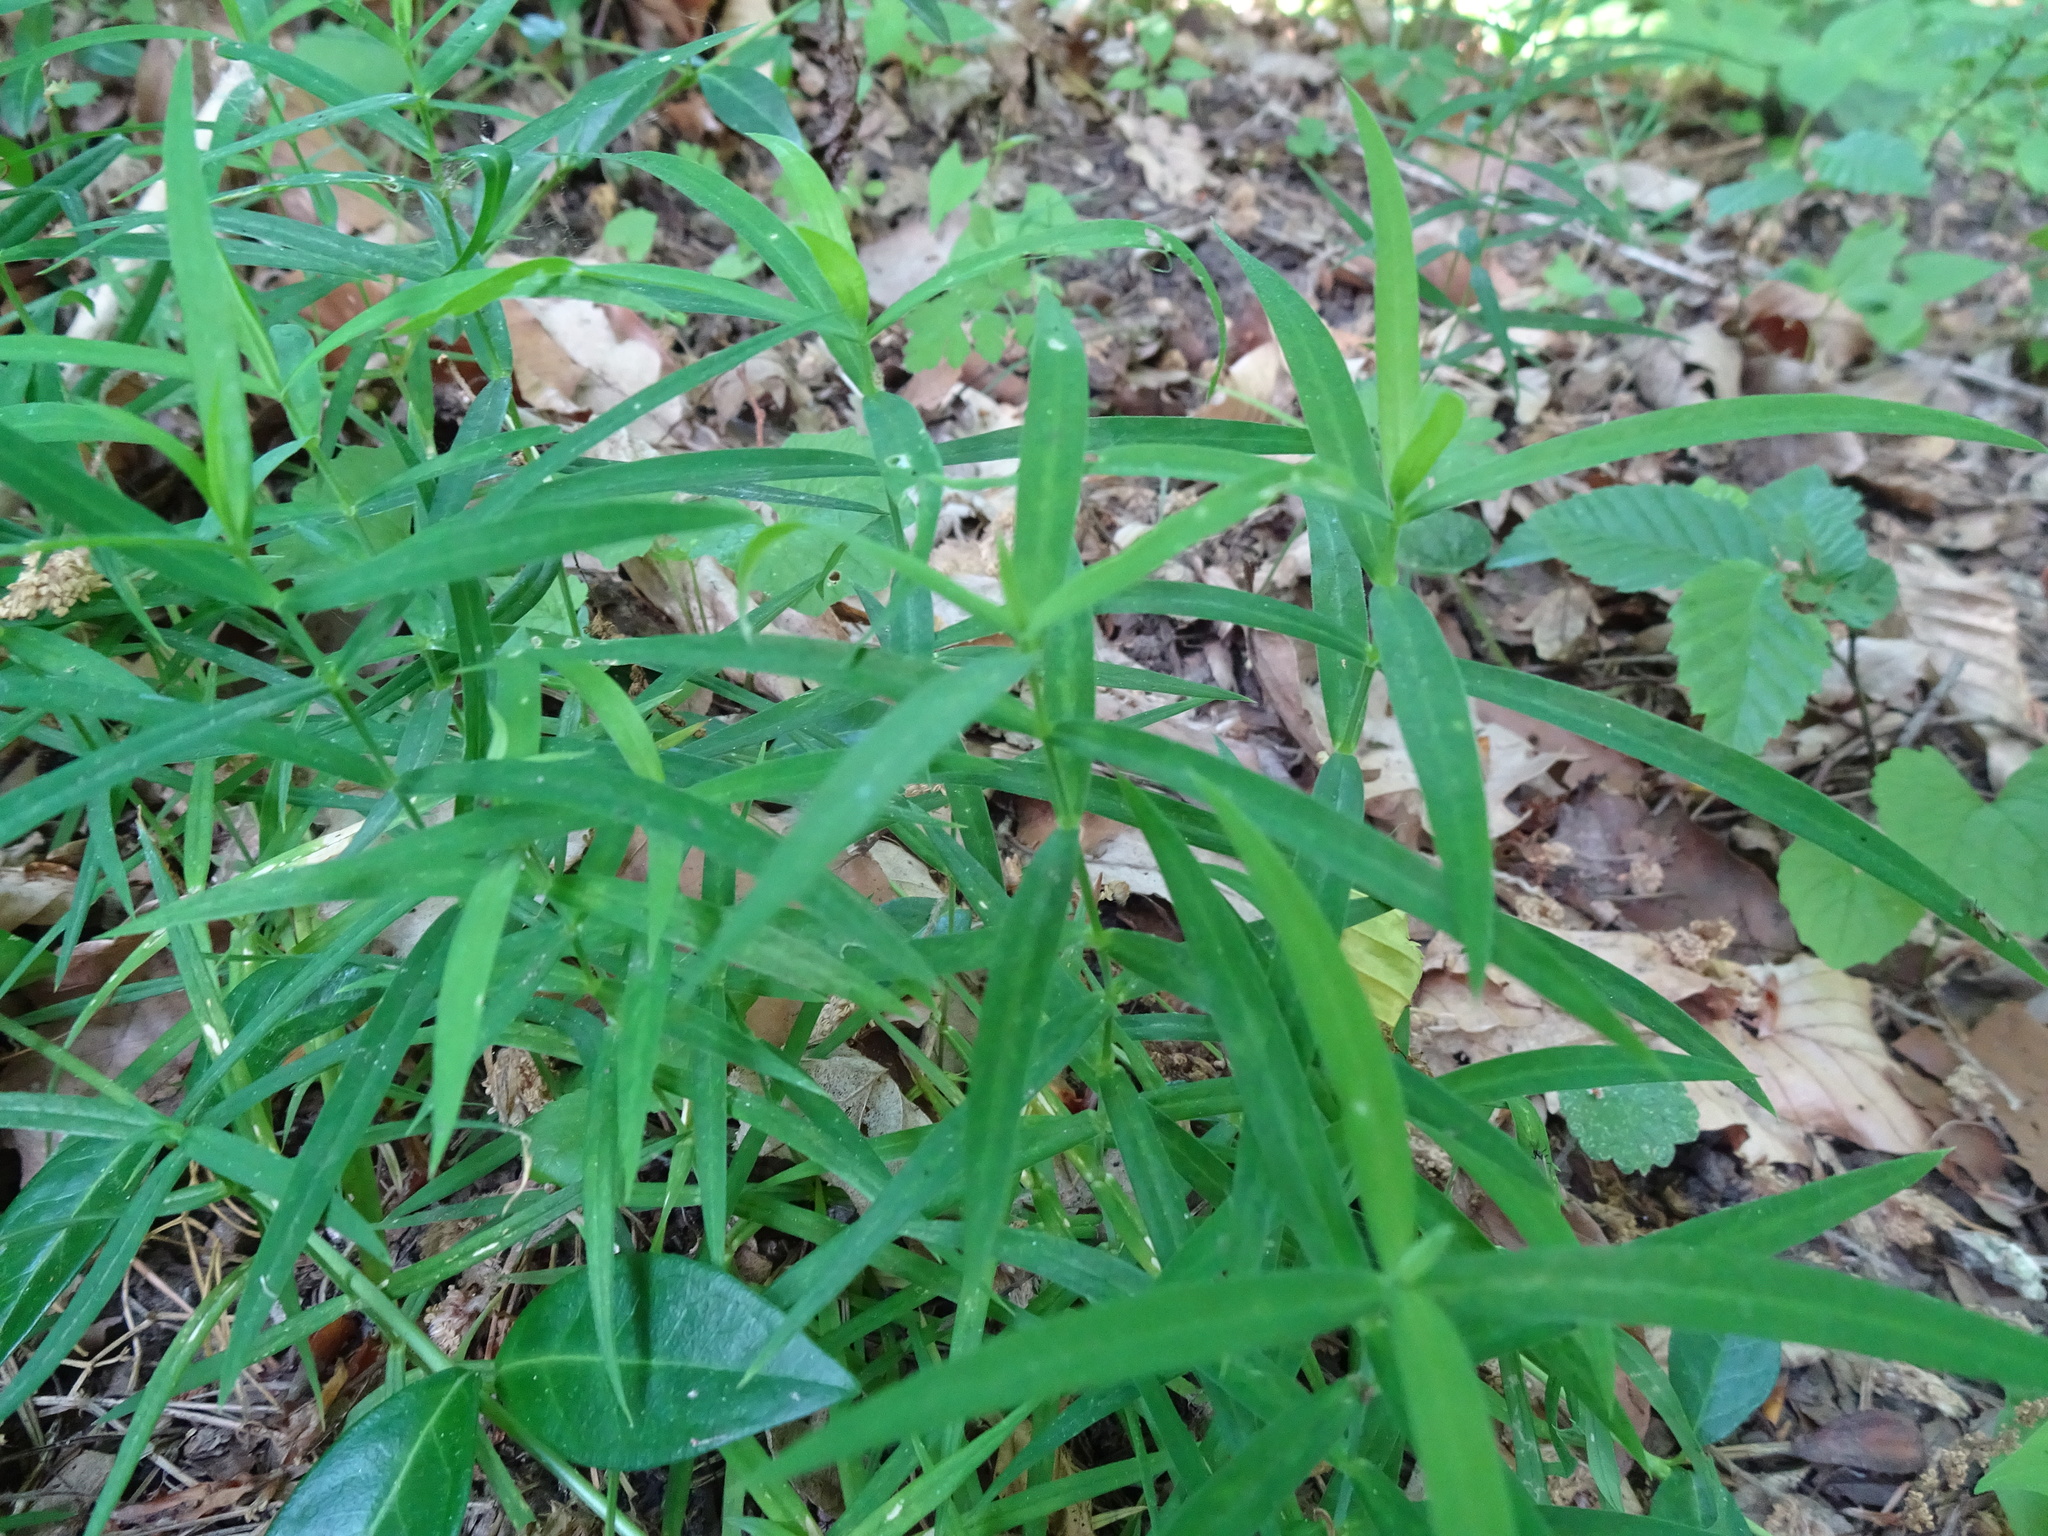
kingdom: Plantae
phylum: Tracheophyta
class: Magnoliopsida
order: Caryophyllales
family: Caryophyllaceae
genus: Rabelera
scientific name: Rabelera holostea
